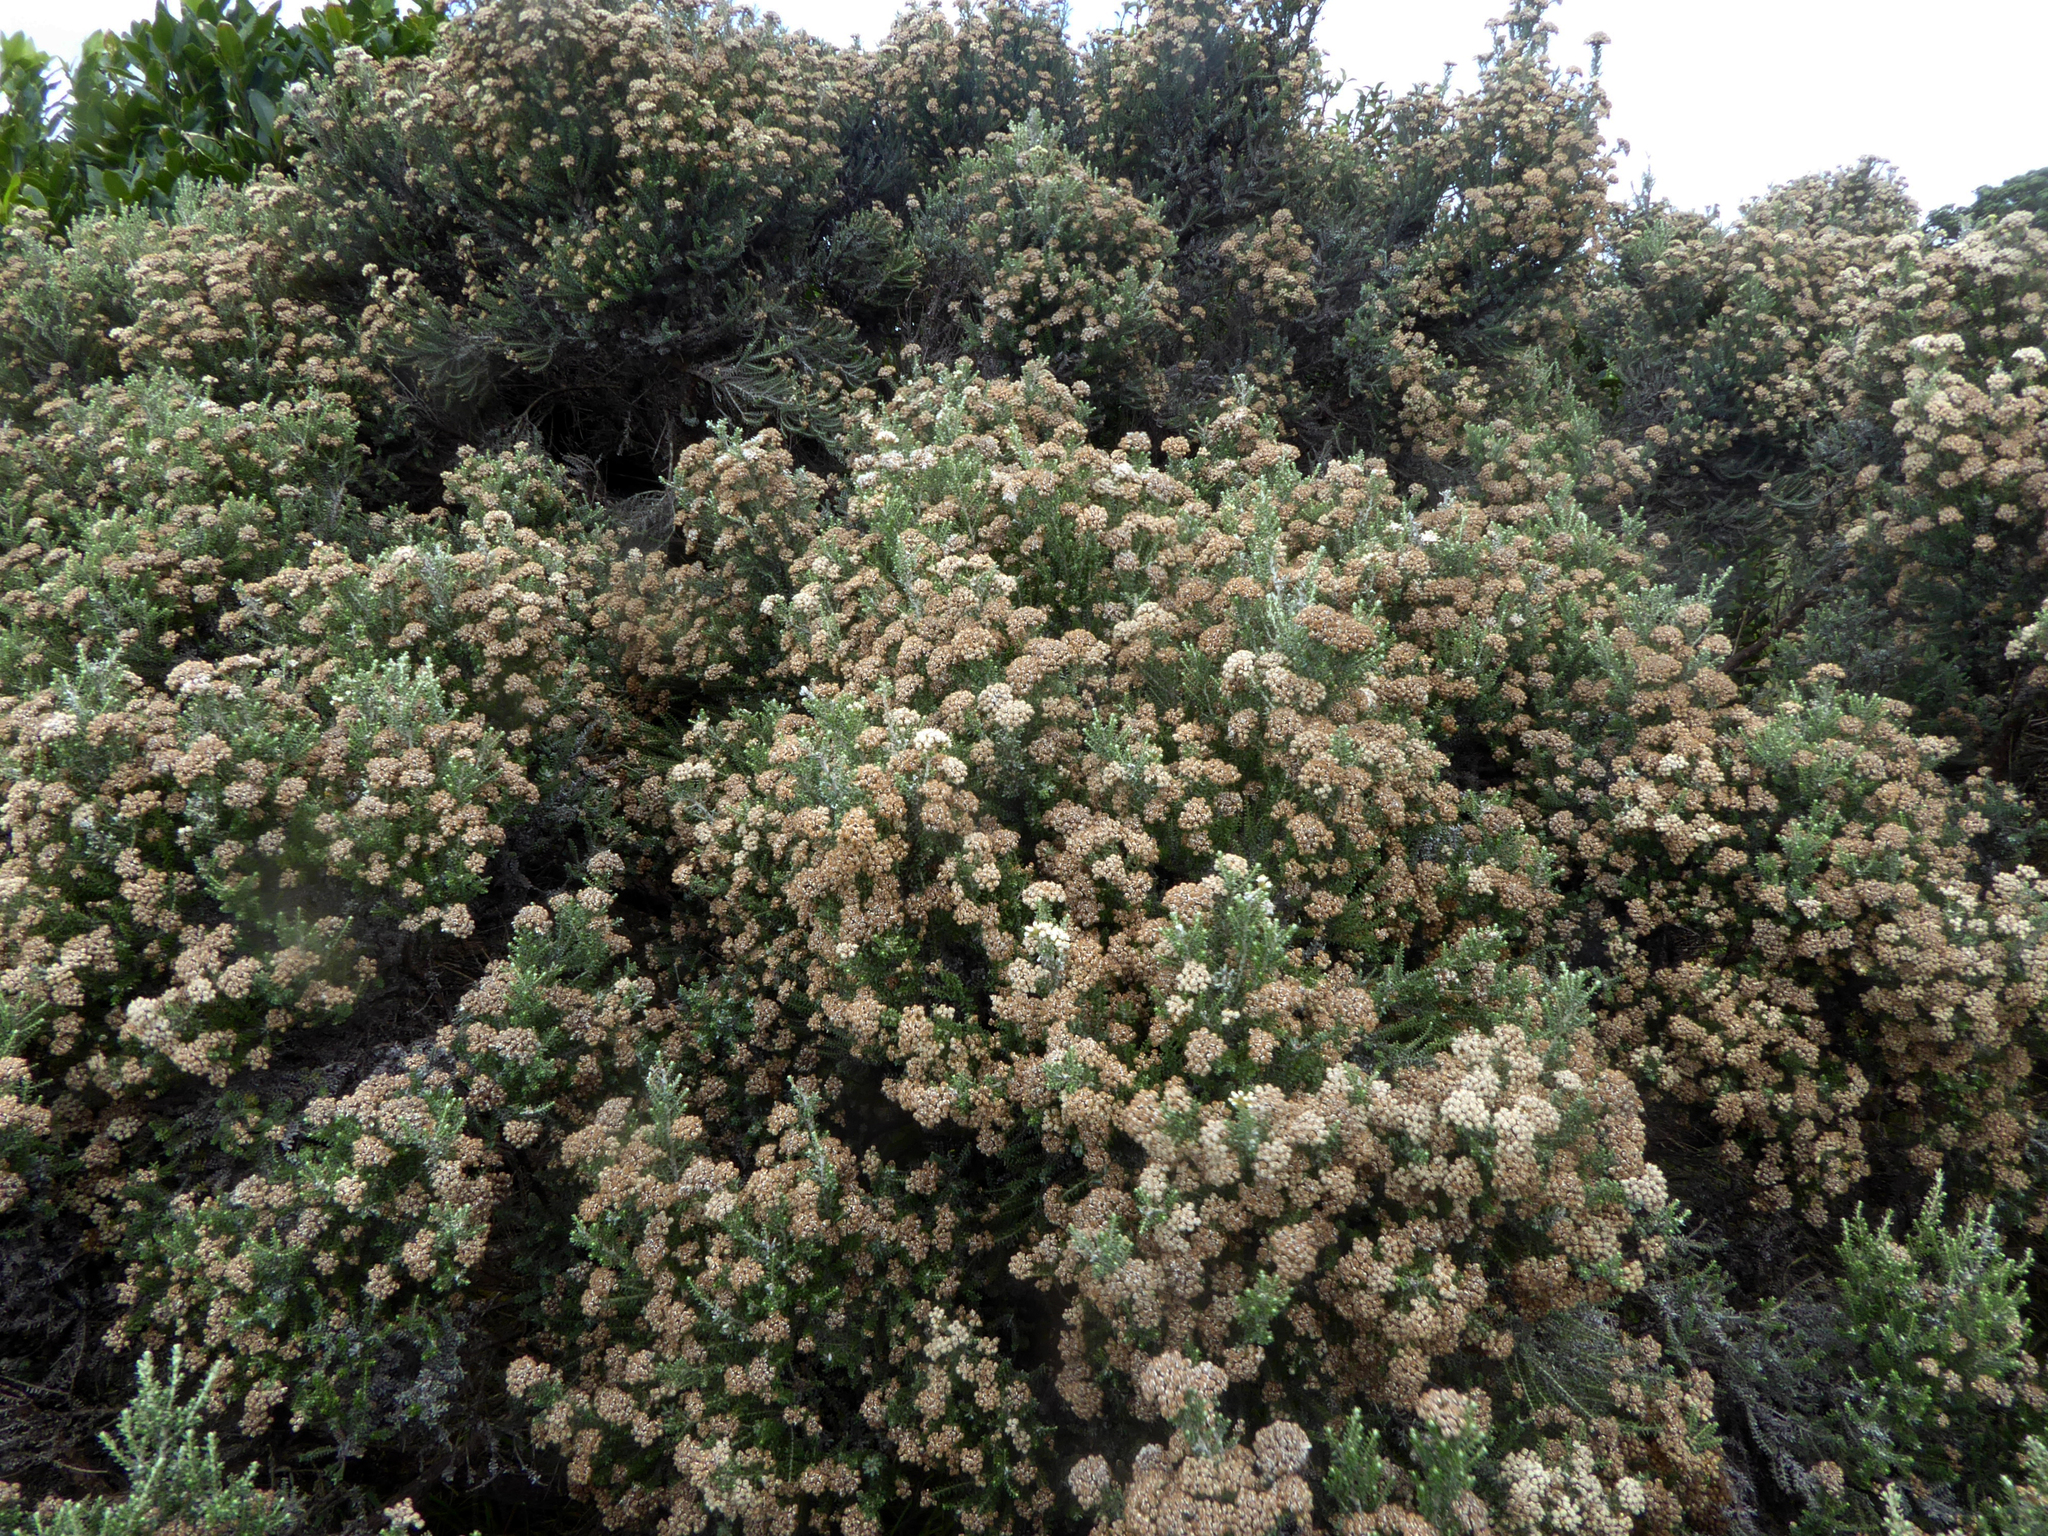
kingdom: Plantae
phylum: Tracheophyta
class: Magnoliopsida
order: Asterales
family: Asteraceae
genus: Ozothamnus
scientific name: Ozothamnus leptophyllus
